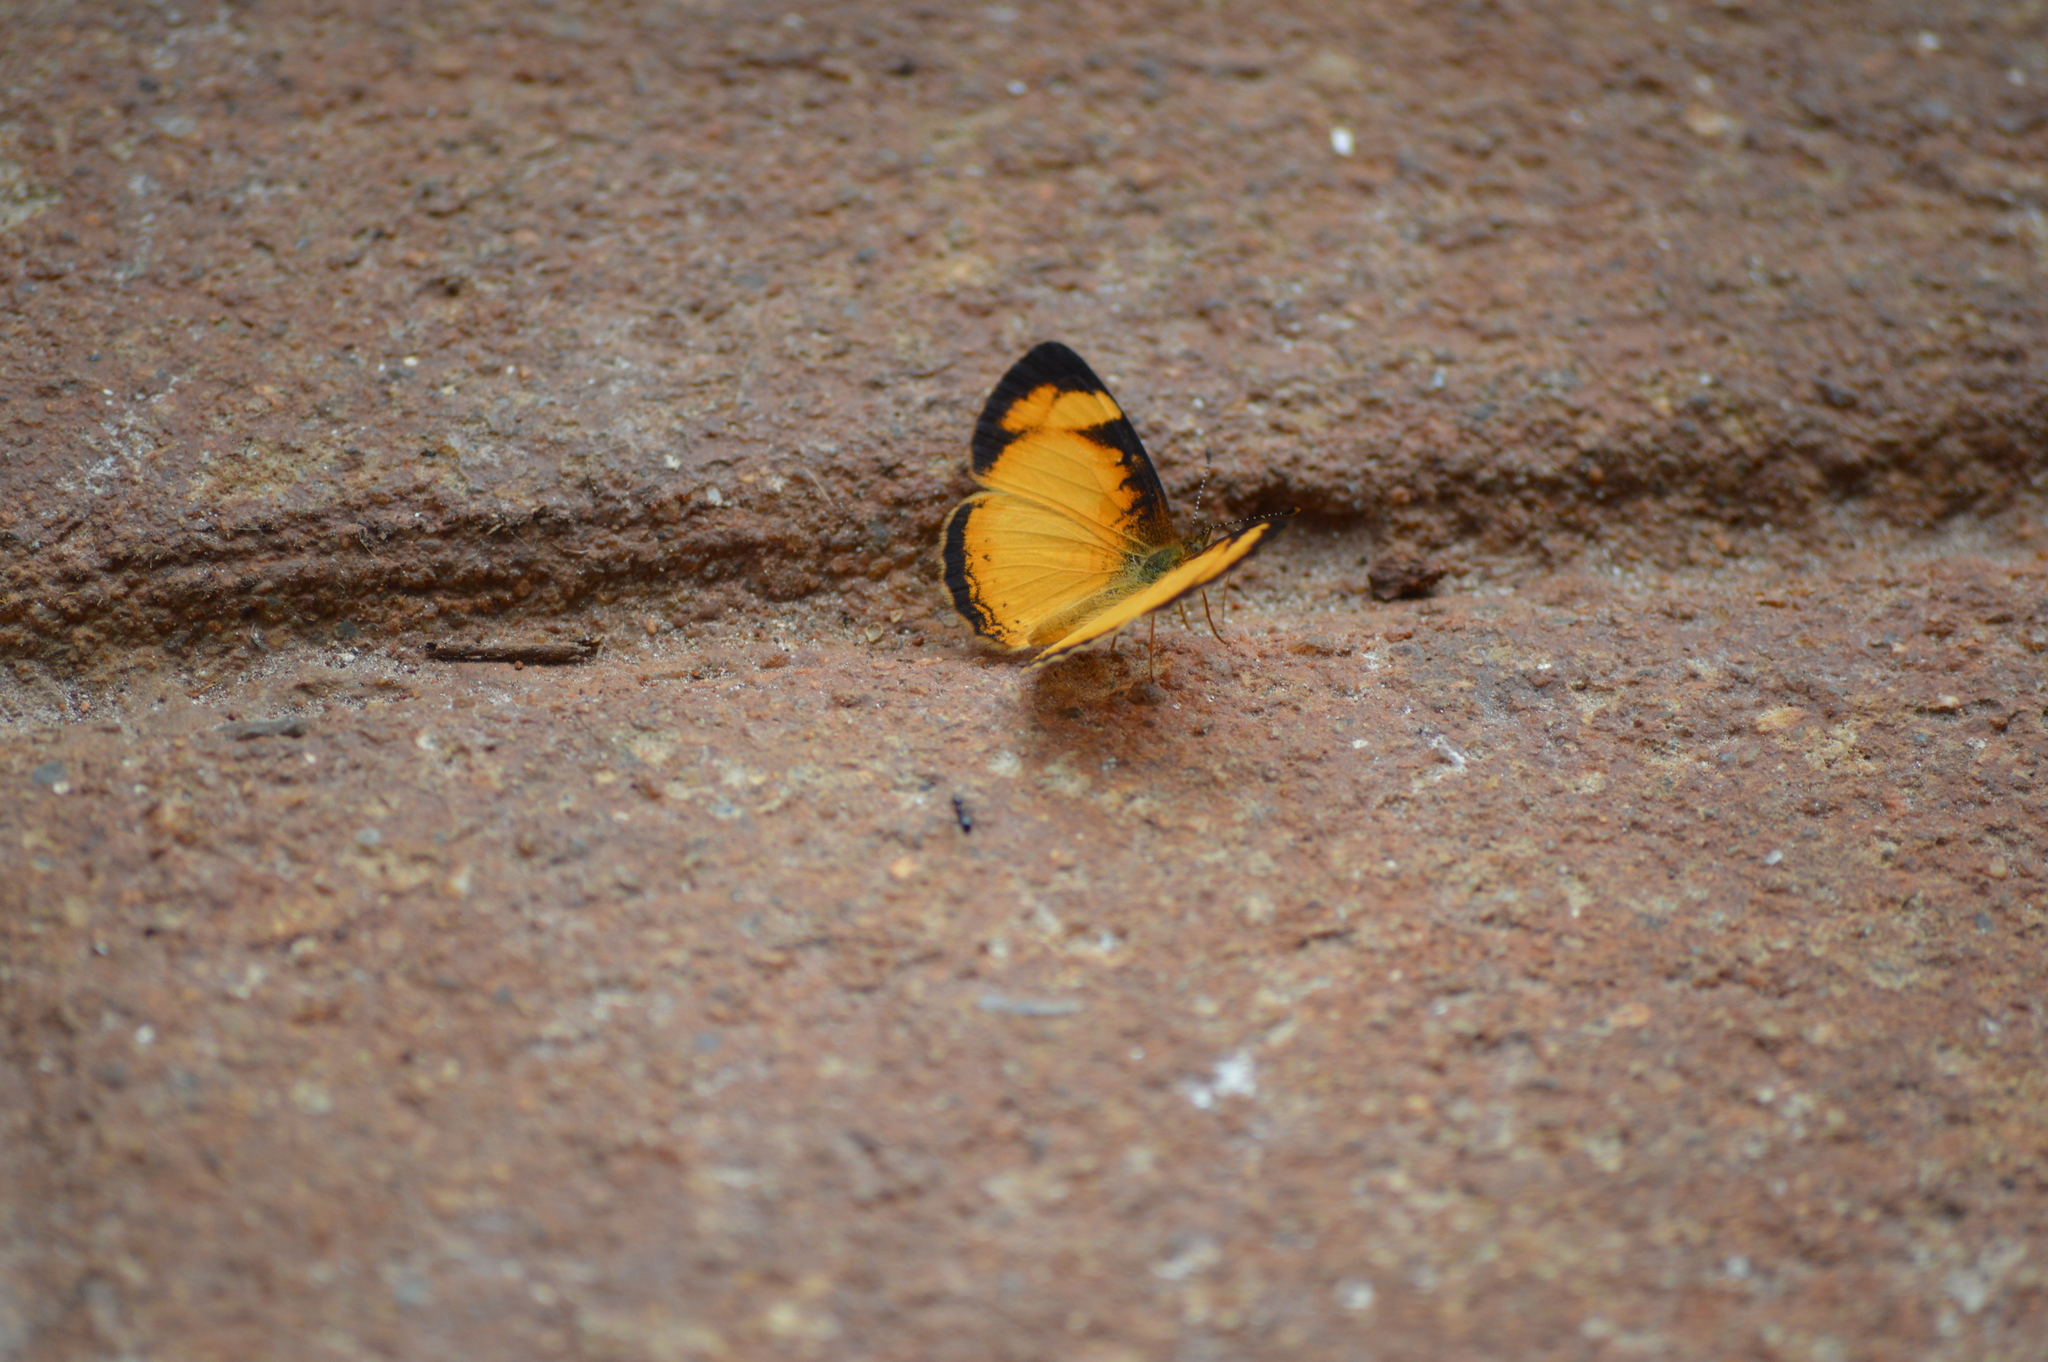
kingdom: Animalia
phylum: Arthropoda
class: Insecta
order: Lepidoptera
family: Nymphalidae
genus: Tegosa
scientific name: Tegosa claudina
